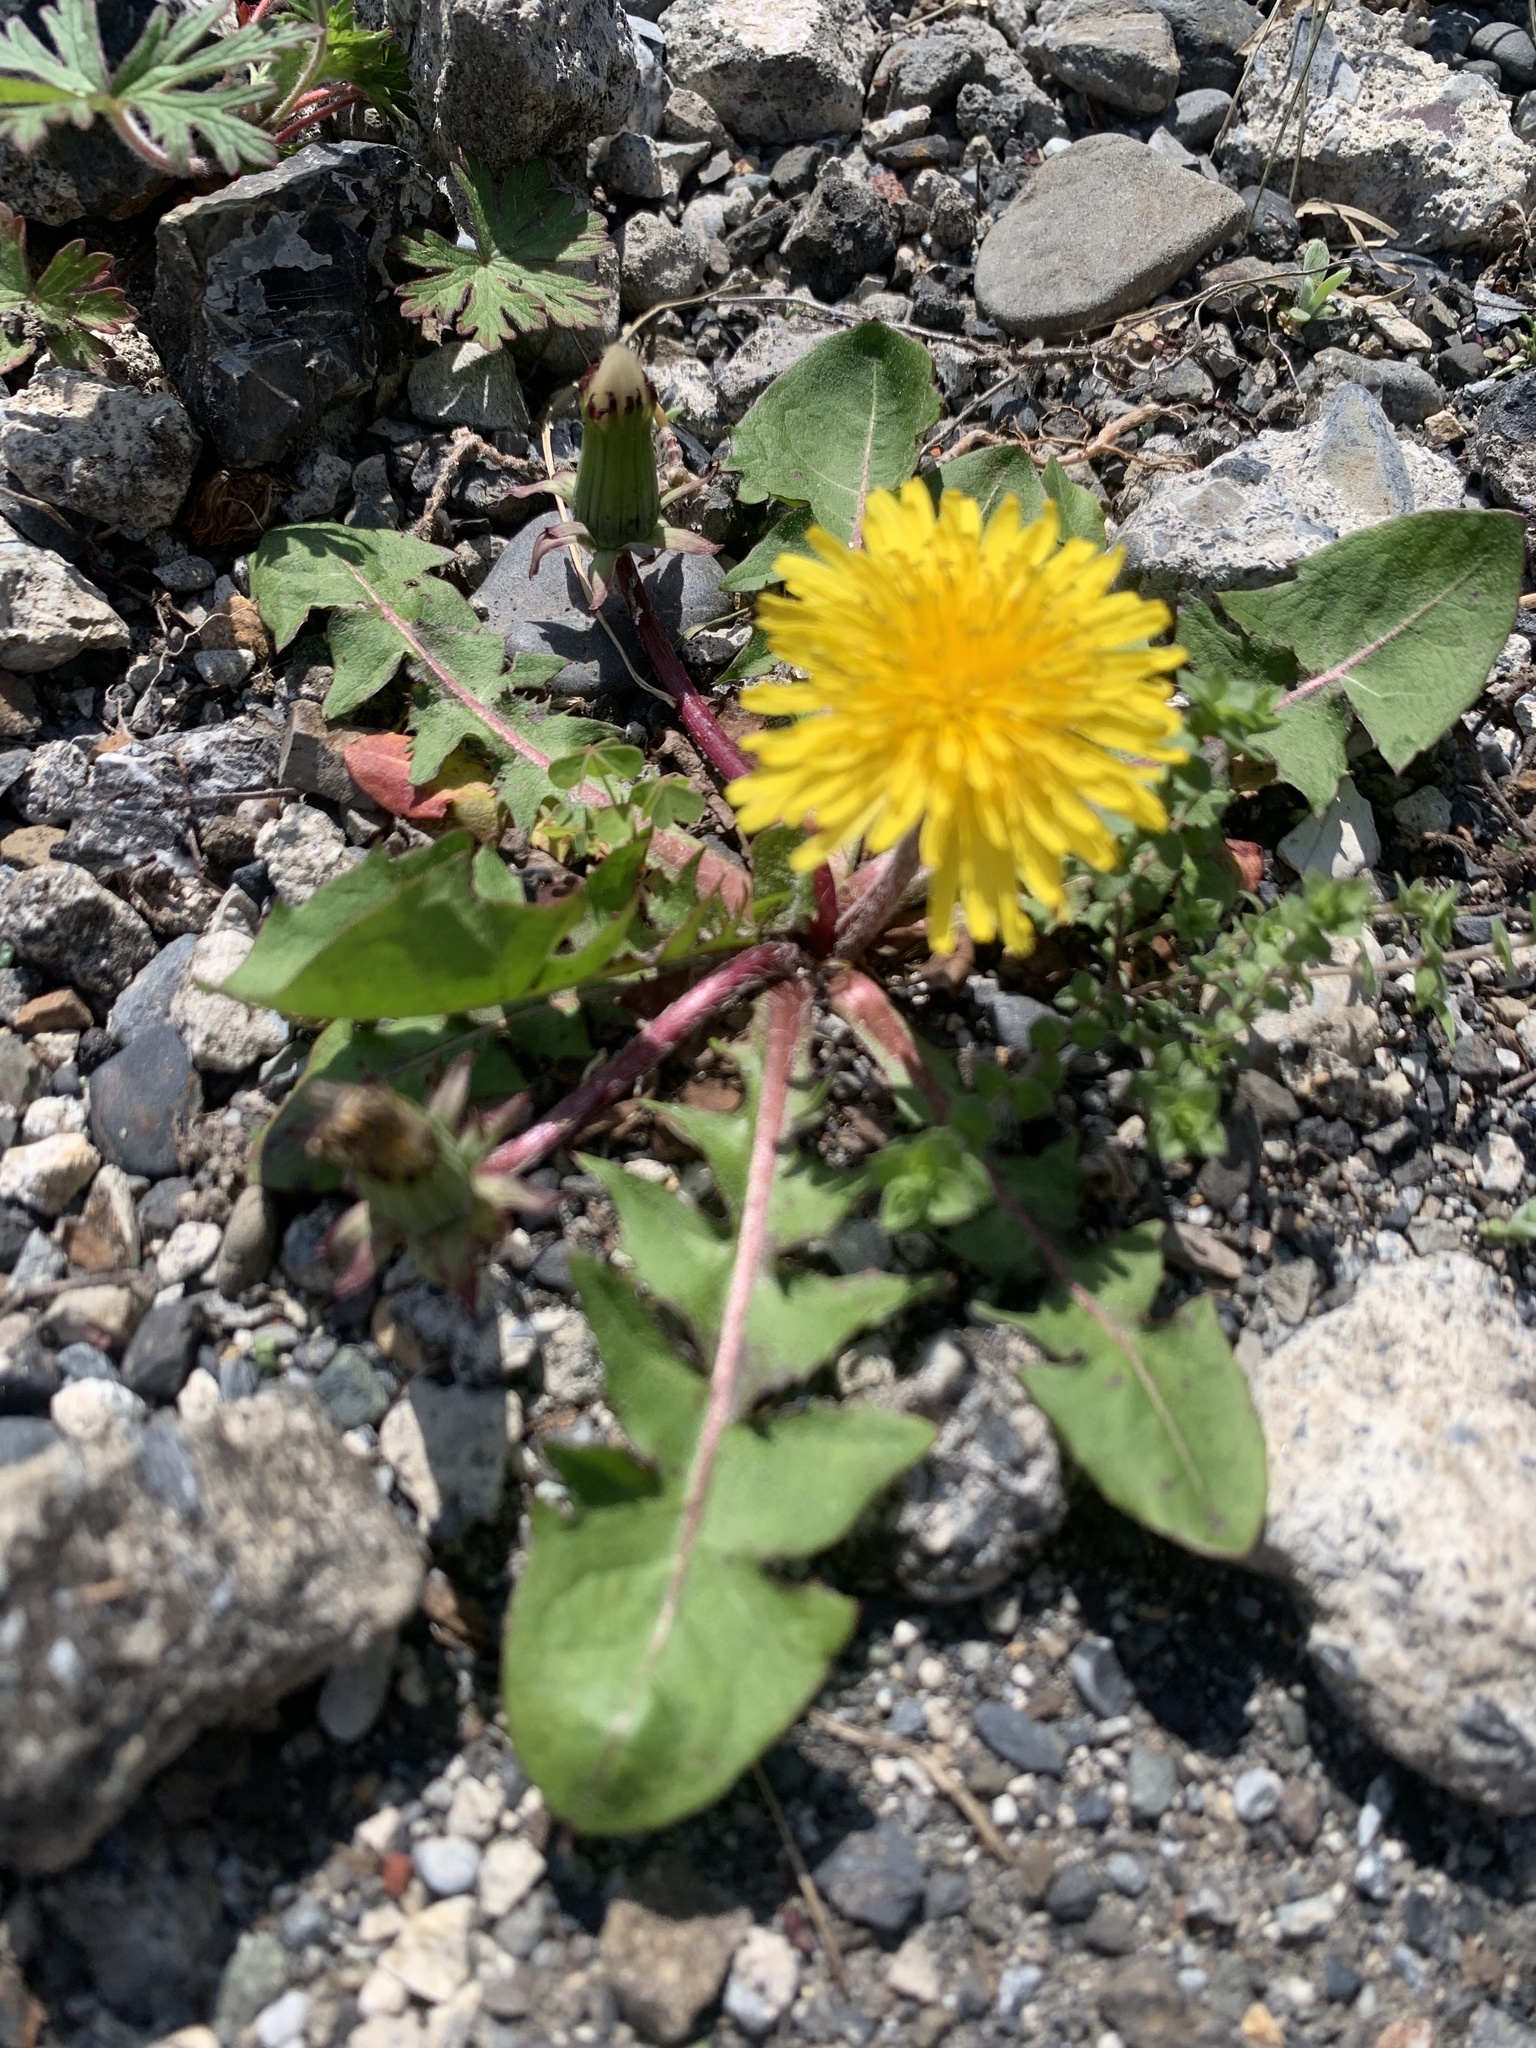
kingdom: Plantae
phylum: Tracheophyta
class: Magnoliopsida
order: Asterales
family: Asteraceae
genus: Taraxacum
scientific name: Taraxacum officinale
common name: Common dandelion
